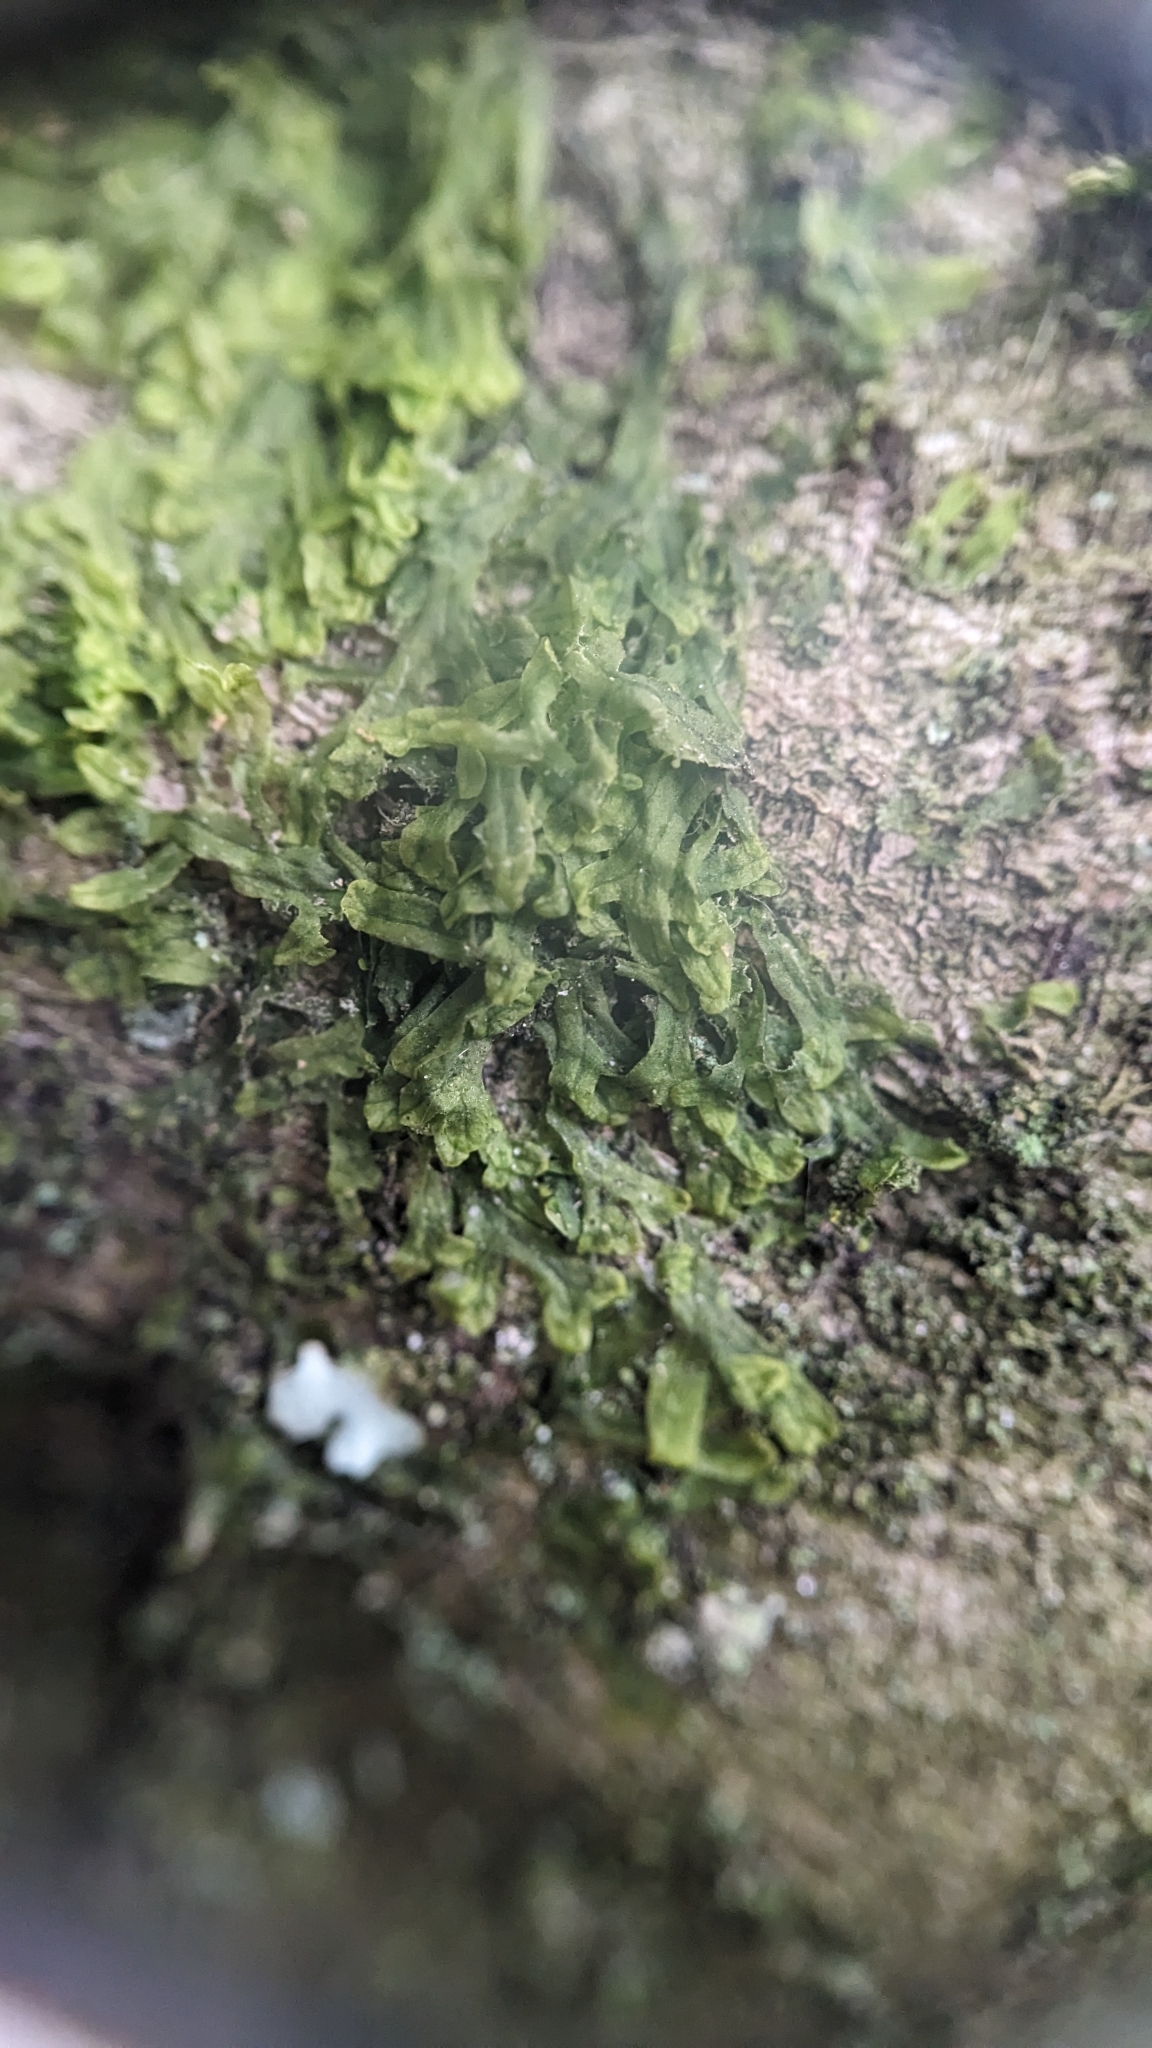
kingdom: Plantae
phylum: Marchantiophyta
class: Jungermanniopsida
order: Metzgeriales
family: Metzgeriaceae
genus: Metzgeria
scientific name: Metzgeria furcata
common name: Forked veilwort
